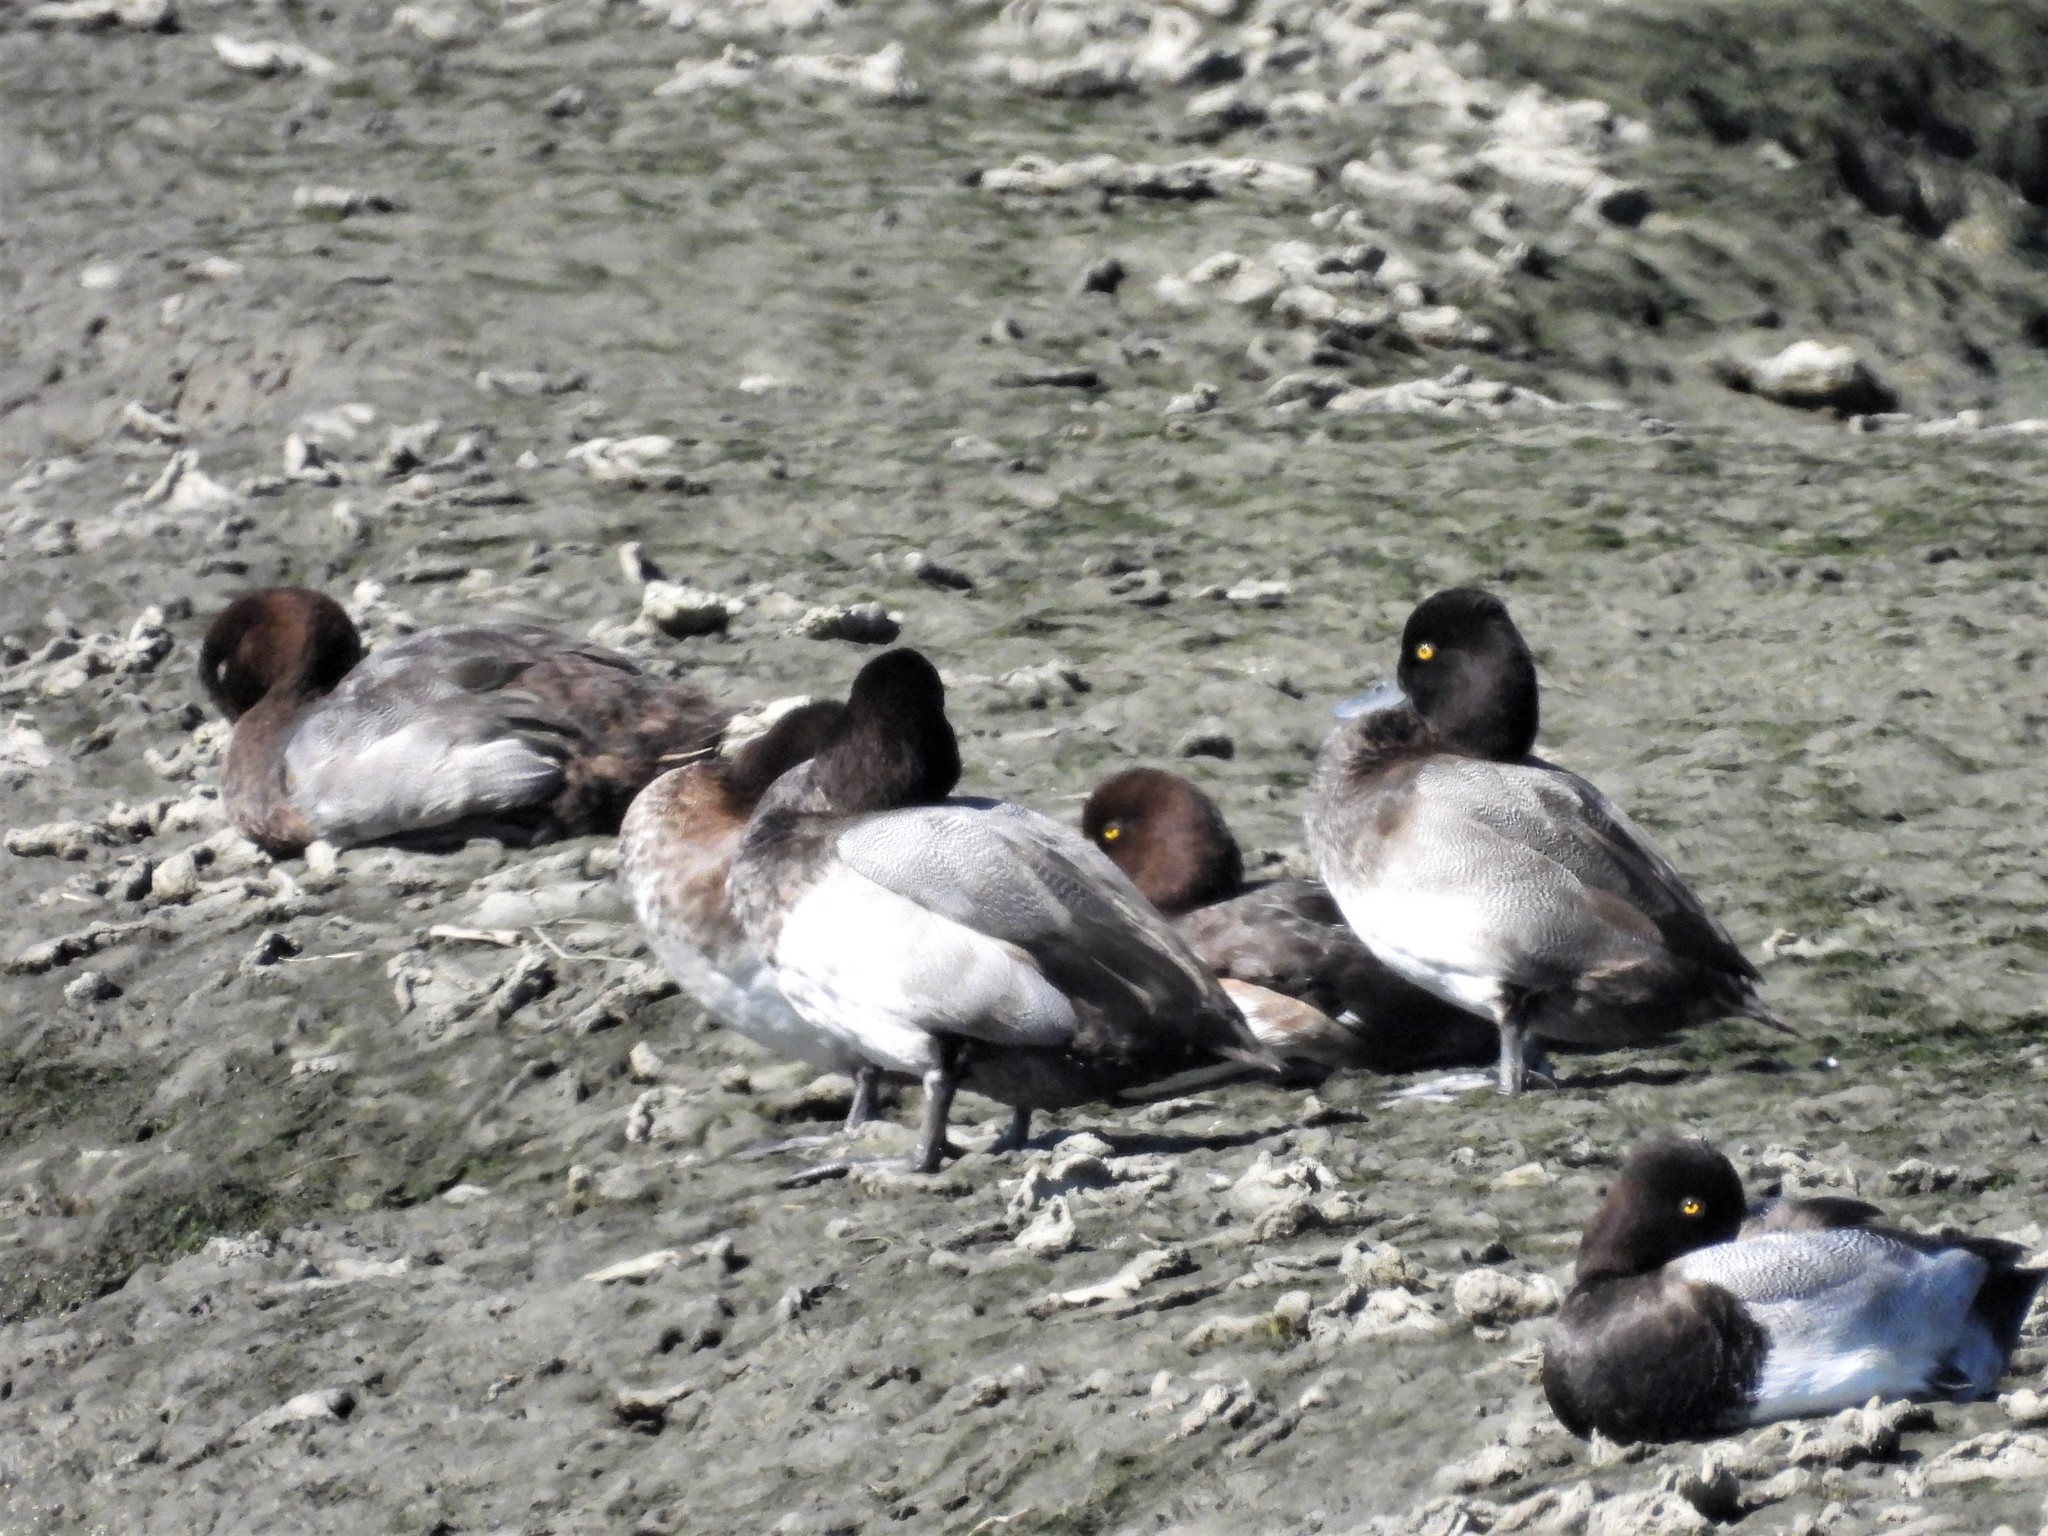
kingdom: Animalia
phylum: Chordata
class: Aves
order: Anseriformes
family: Anatidae
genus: Aythya
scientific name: Aythya affinis
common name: Lesser scaup
